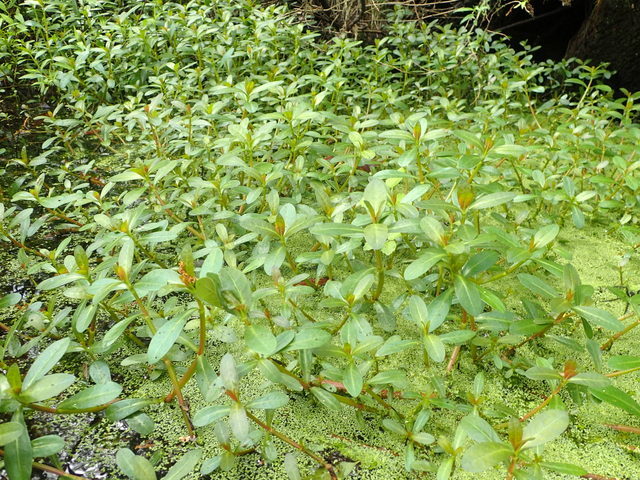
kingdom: Plantae
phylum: Tracheophyta
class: Magnoliopsida
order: Caryophyllales
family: Amaranthaceae
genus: Alternanthera
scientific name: Alternanthera philoxeroides
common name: Alligatorweed
